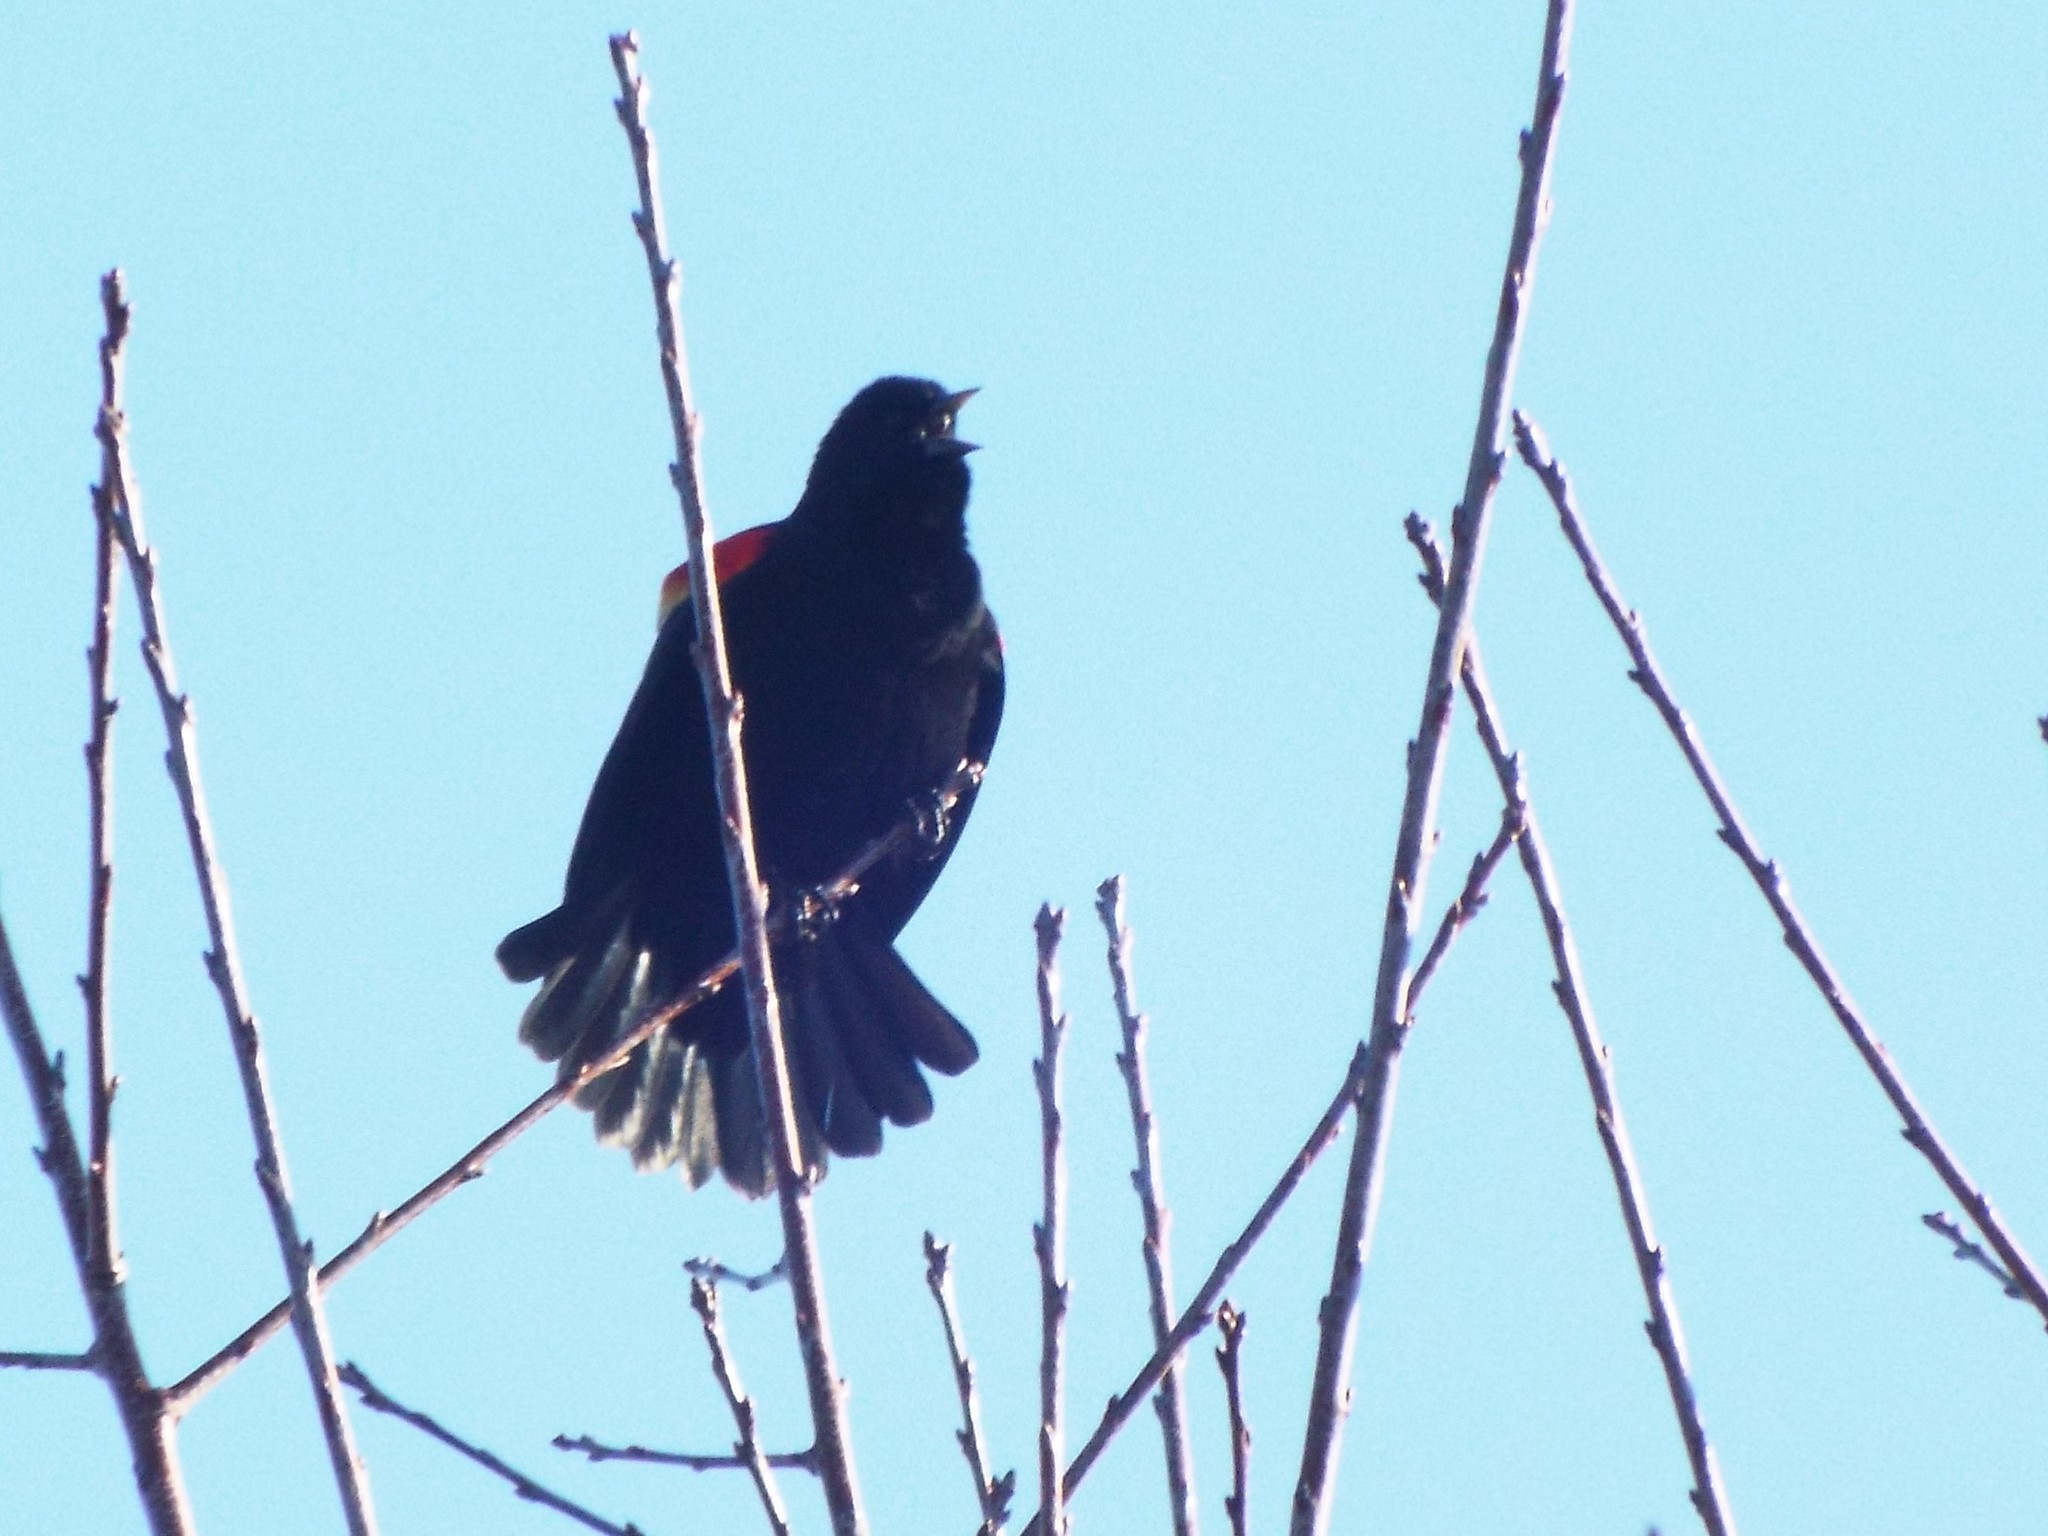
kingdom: Animalia
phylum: Chordata
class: Aves
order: Passeriformes
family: Icteridae
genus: Agelaius
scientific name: Agelaius phoeniceus
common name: Red-winged blackbird
